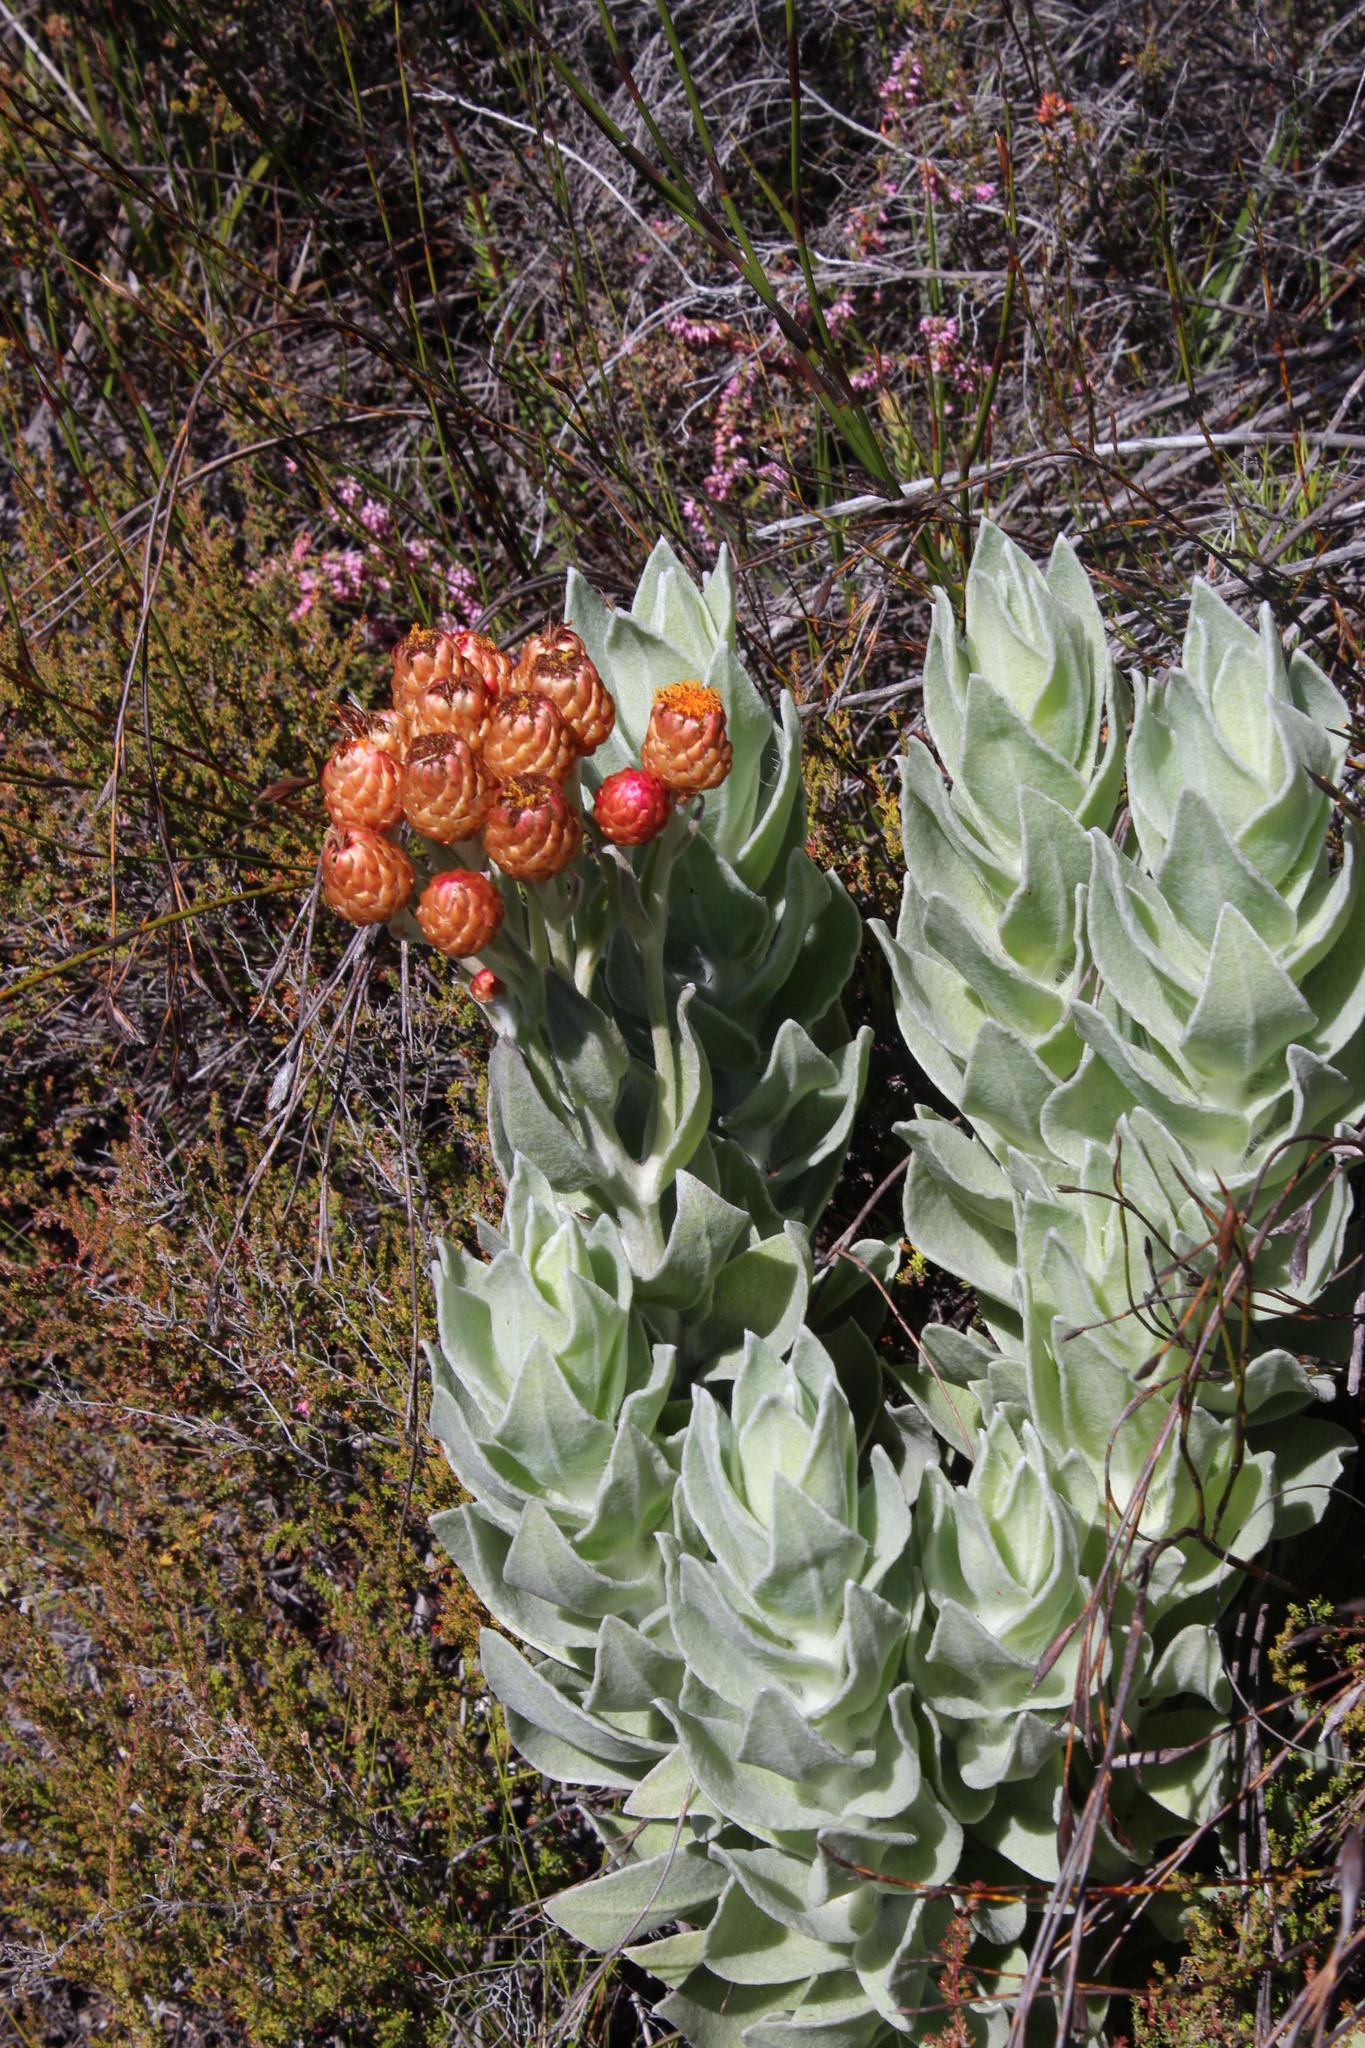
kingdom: Plantae
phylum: Tracheophyta
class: Magnoliopsida
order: Asterales
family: Asteraceae
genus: Syncarpha
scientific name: Syncarpha eximia
